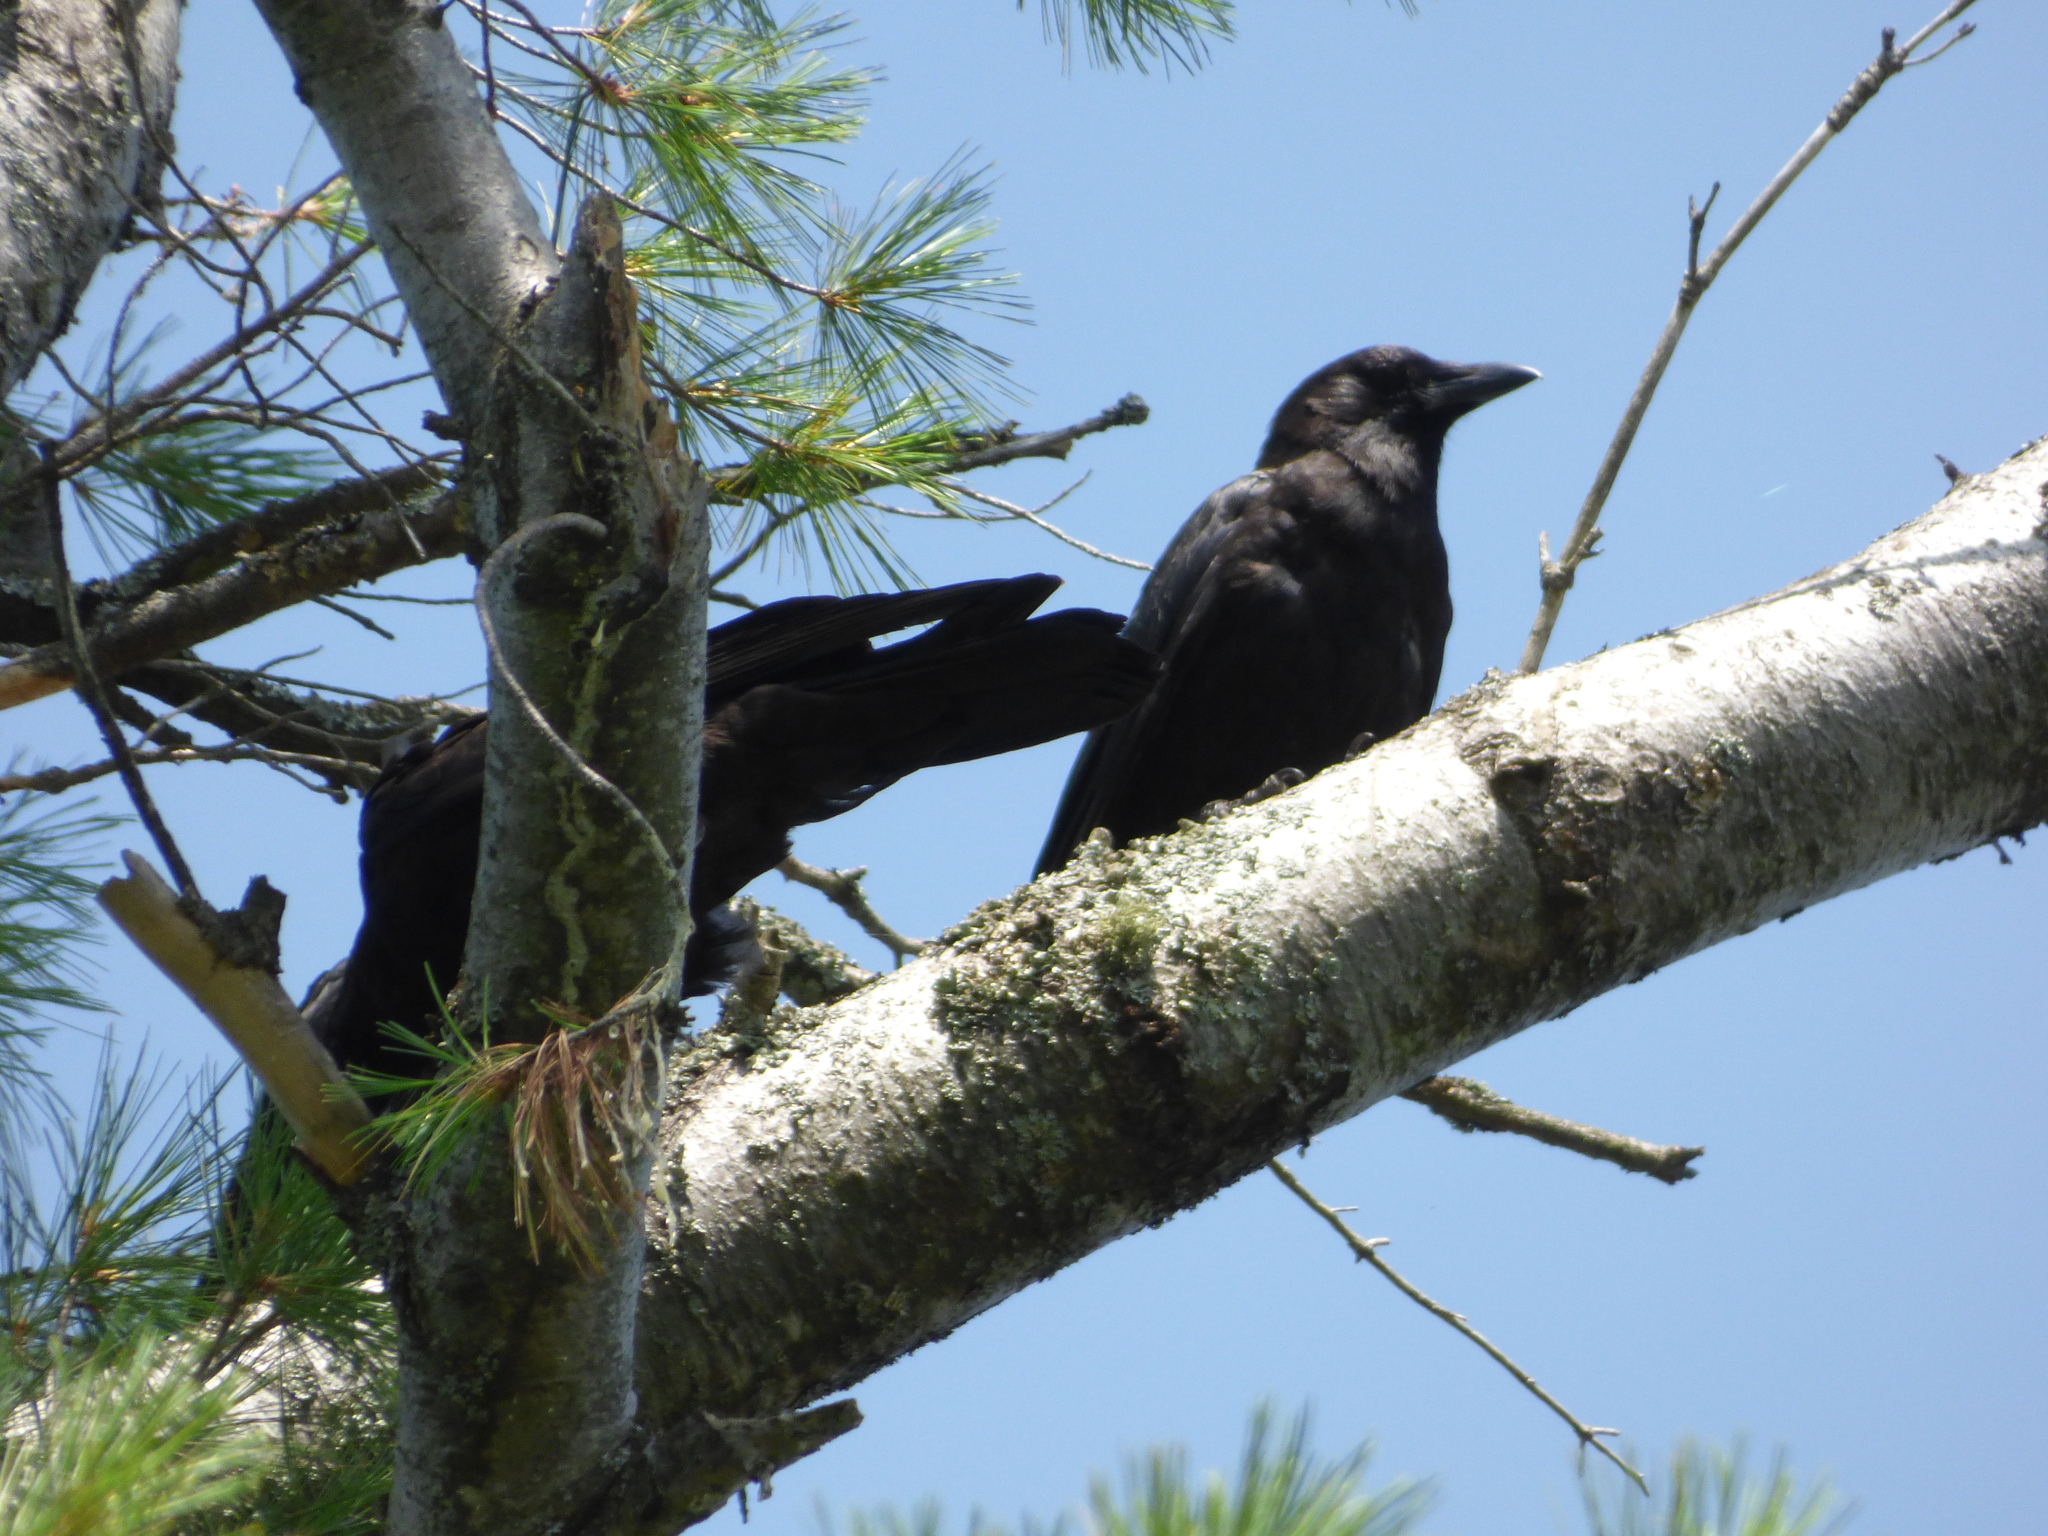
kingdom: Animalia
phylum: Chordata
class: Aves
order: Passeriformes
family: Corvidae
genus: Corvus
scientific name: Corvus brachyrhynchos
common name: American crow
